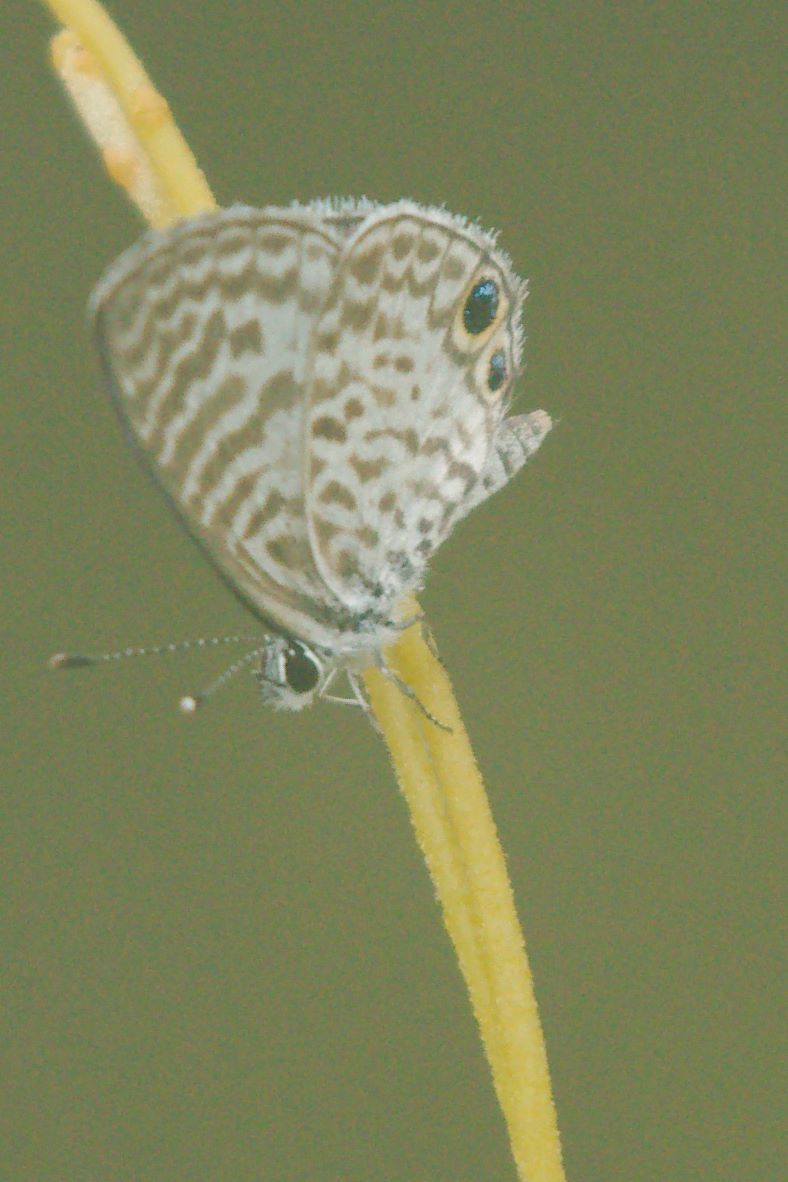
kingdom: Animalia
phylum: Arthropoda
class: Insecta
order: Lepidoptera
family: Lycaenidae
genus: Leptotes
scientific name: Leptotes cassius
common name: Cassius blue
